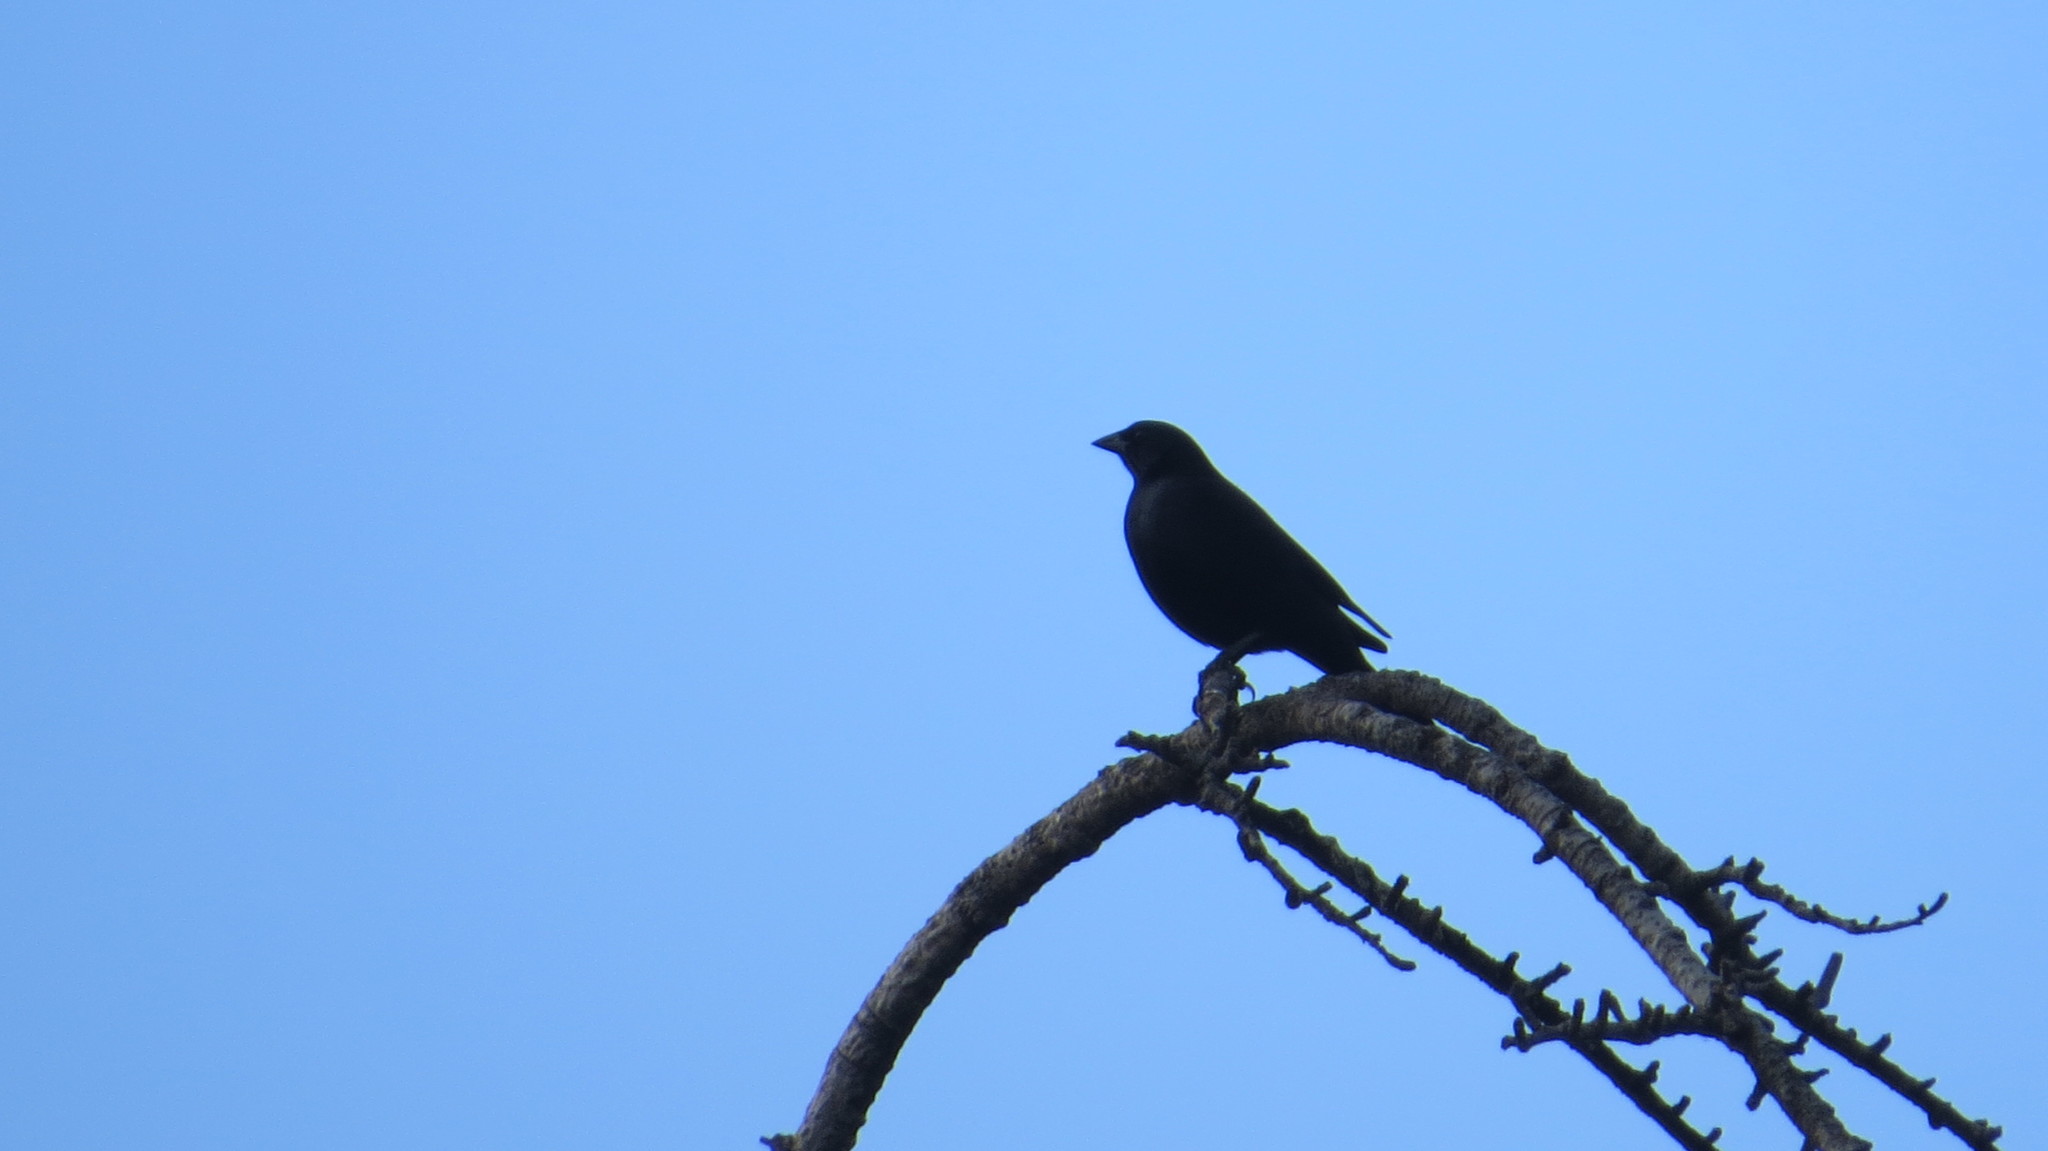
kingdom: Animalia
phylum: Chordata
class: Aves
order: Passeriformes
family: Icteridae
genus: Molothrus
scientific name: Molothrus bonariensis
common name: Shiny cowbird
